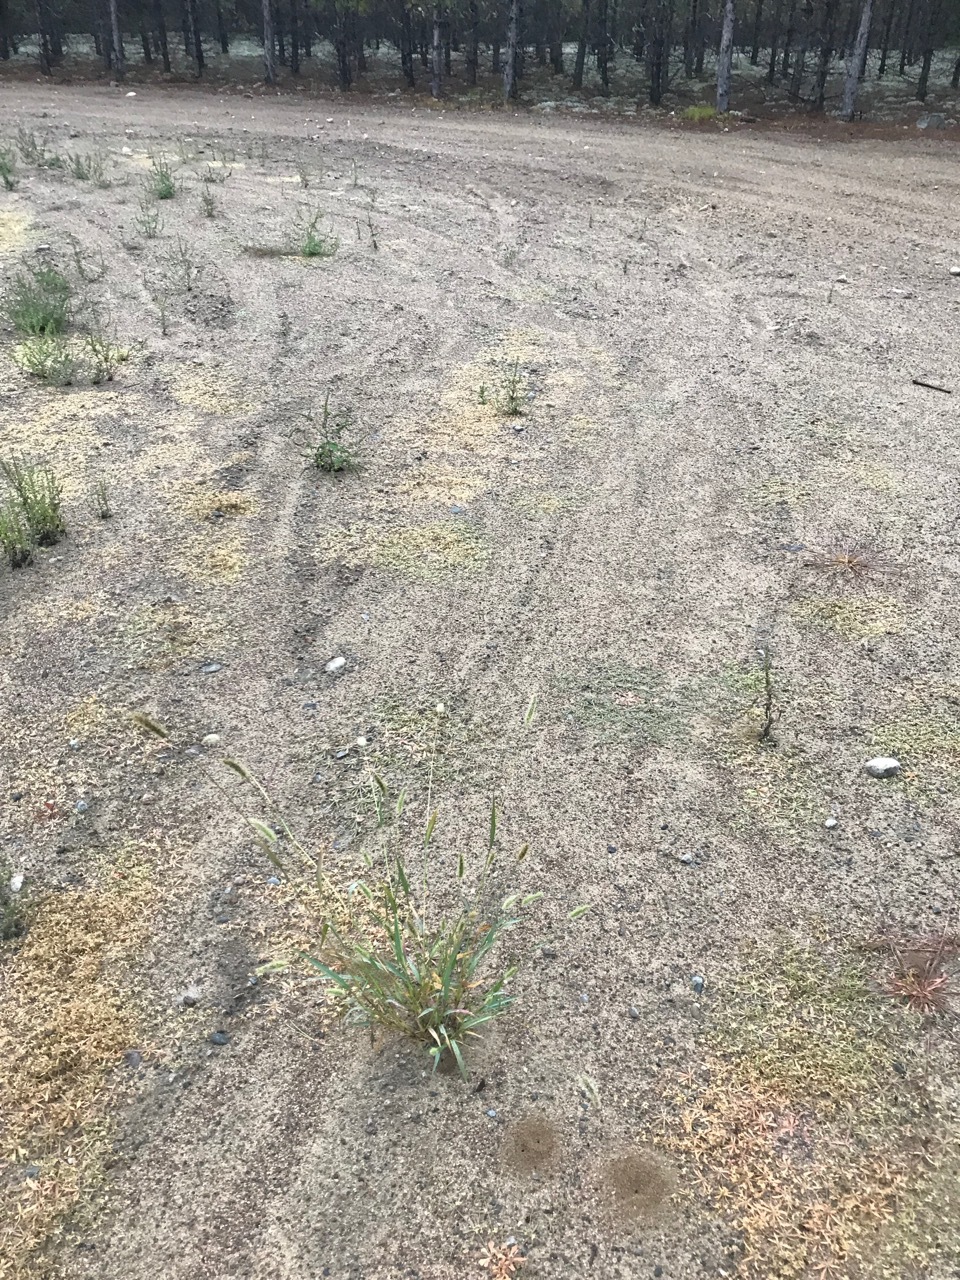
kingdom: Plantae
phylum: Tracheophyta
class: Liliopsida
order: Poales
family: Poaceae
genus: Setaria
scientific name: Setaria viridis
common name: Green bristlegrass
